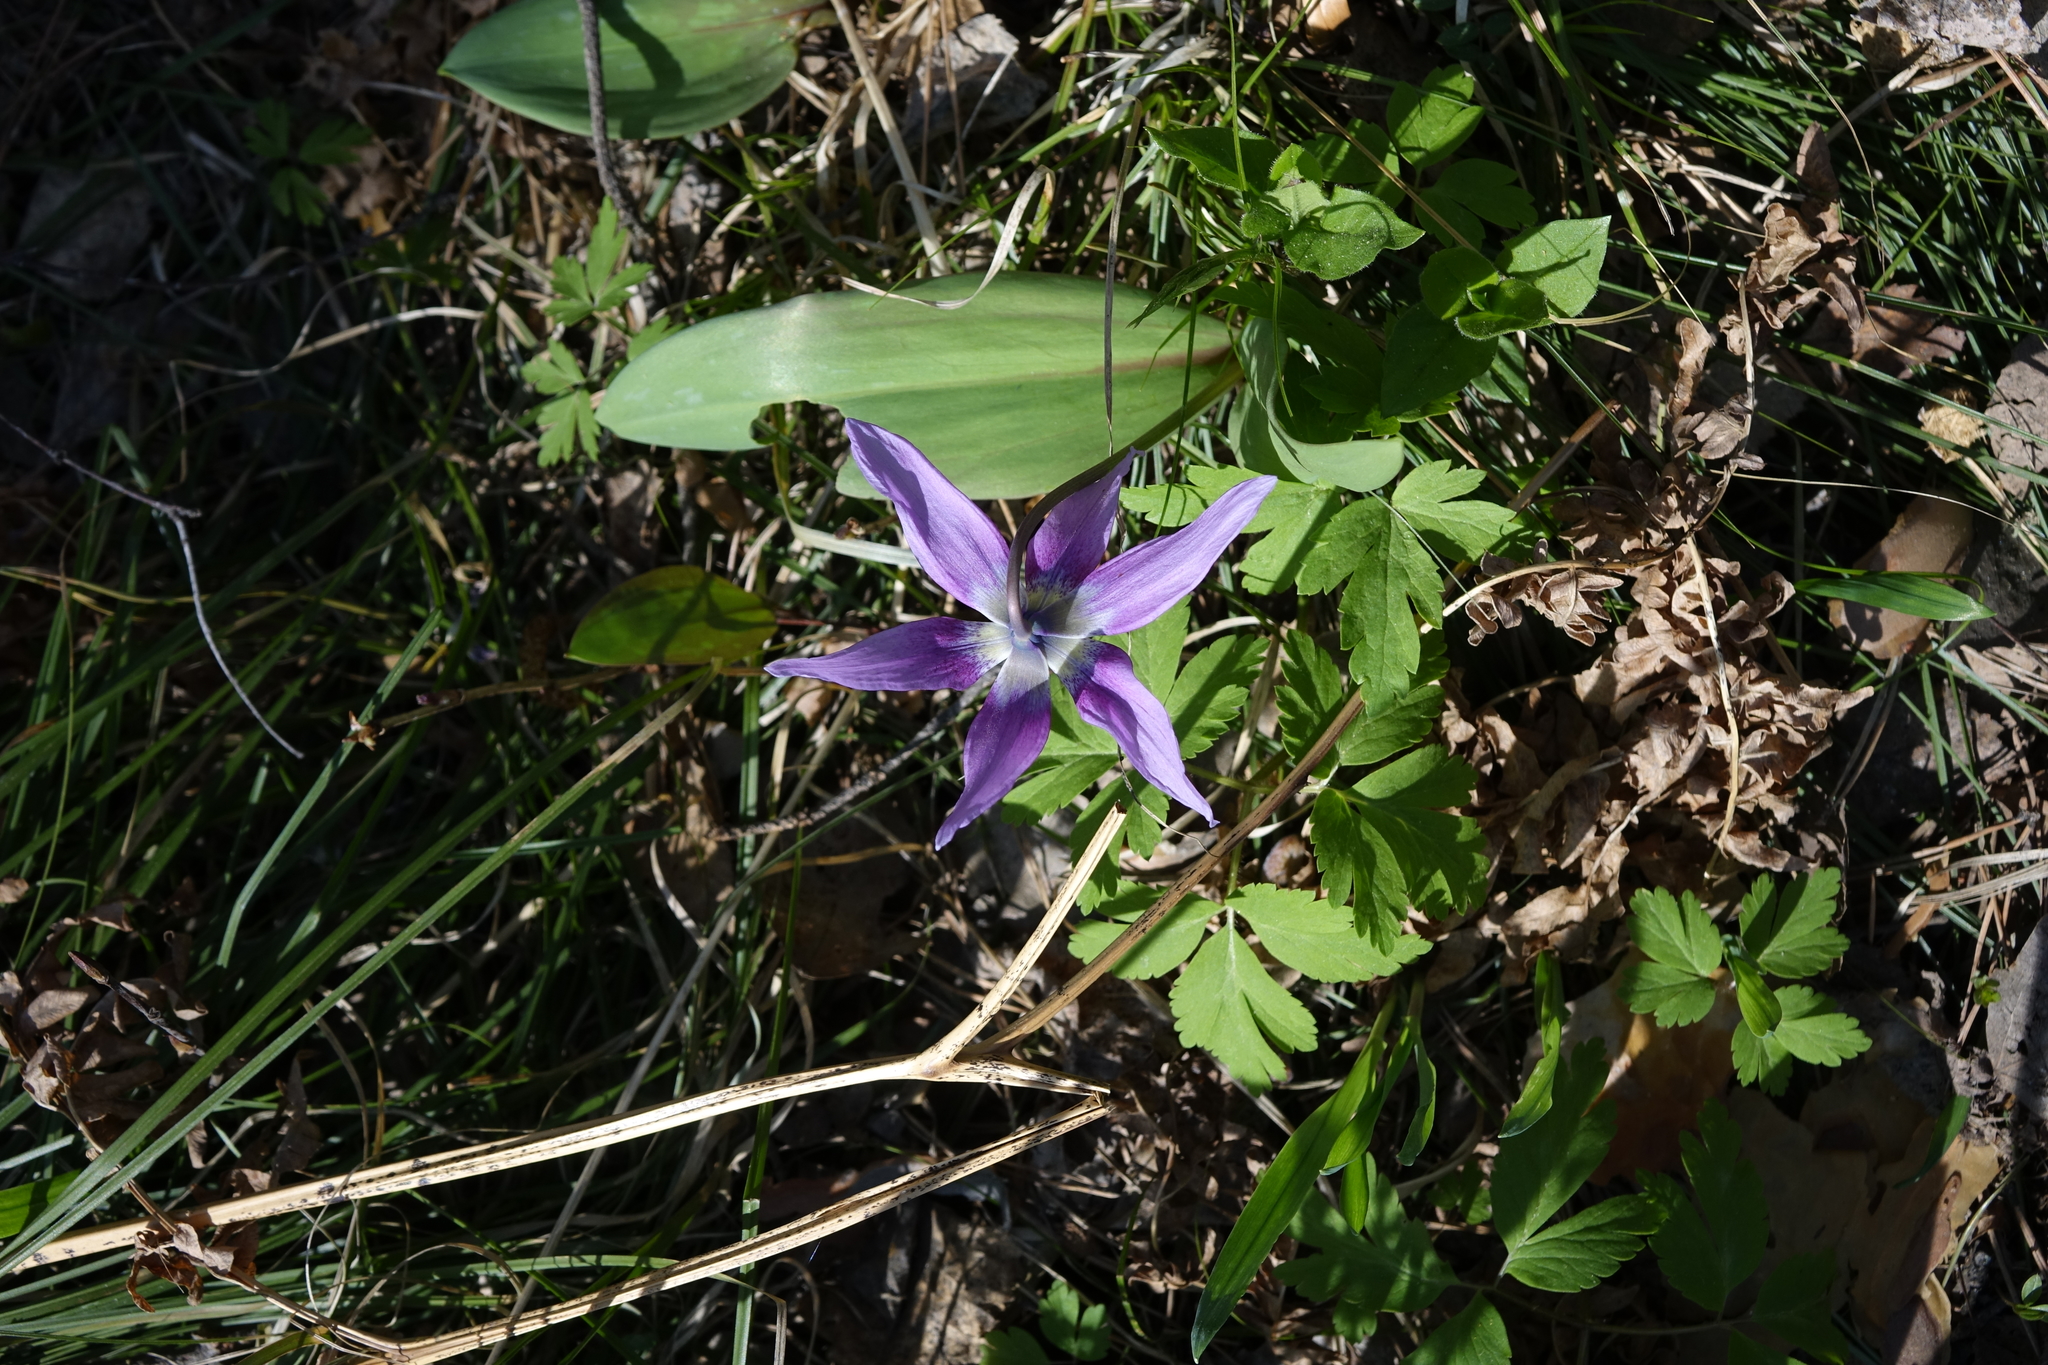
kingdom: Plantae
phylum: Tracheophyta
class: Liliopsida
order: Liliales
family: Liliaceae
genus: Erythronium
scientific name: Erythronium sibiricum
